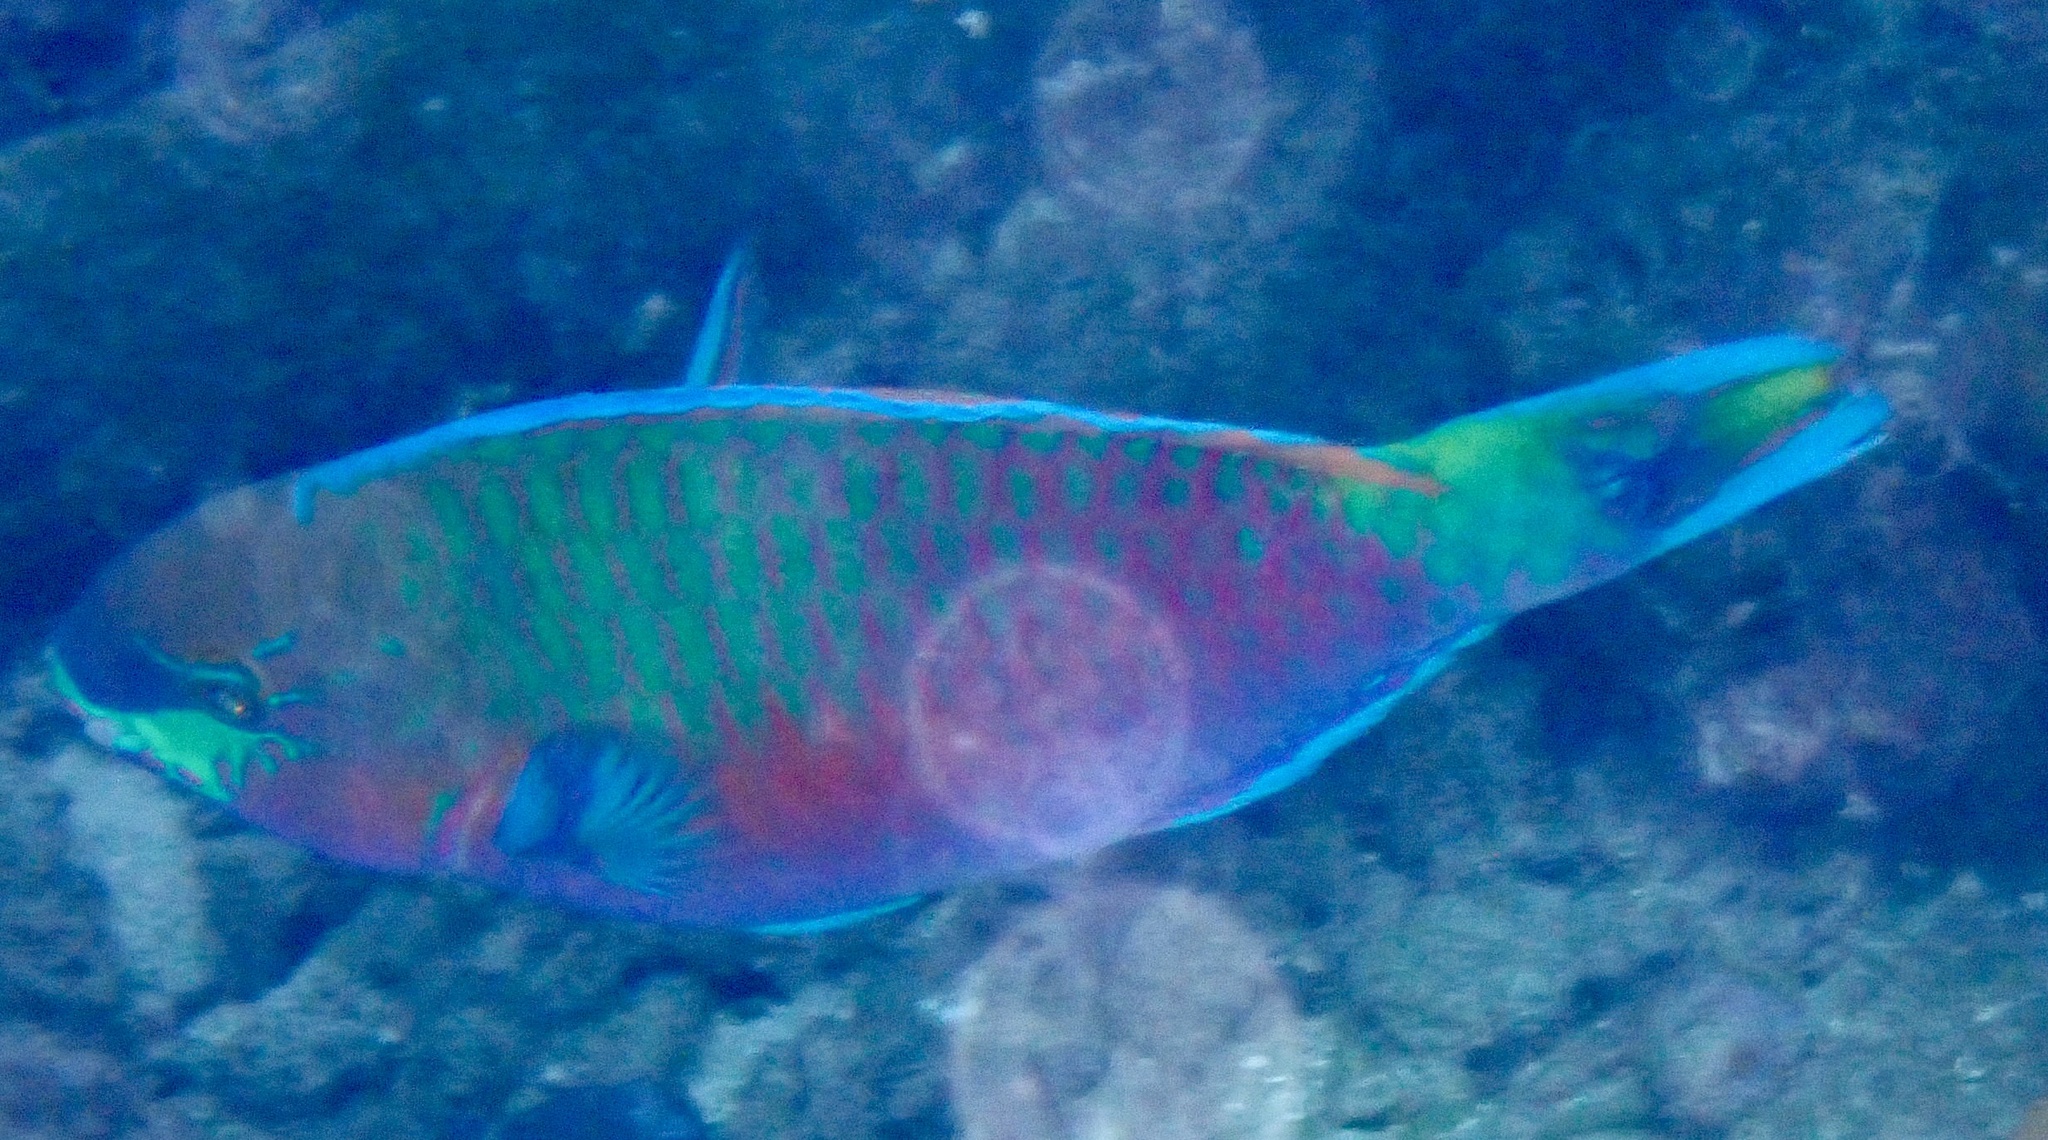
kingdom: Animalia
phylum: Chordata
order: Perciformes
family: Scaridae
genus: Scarus
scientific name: Scarus quoyi
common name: Quoy's parrotfish
